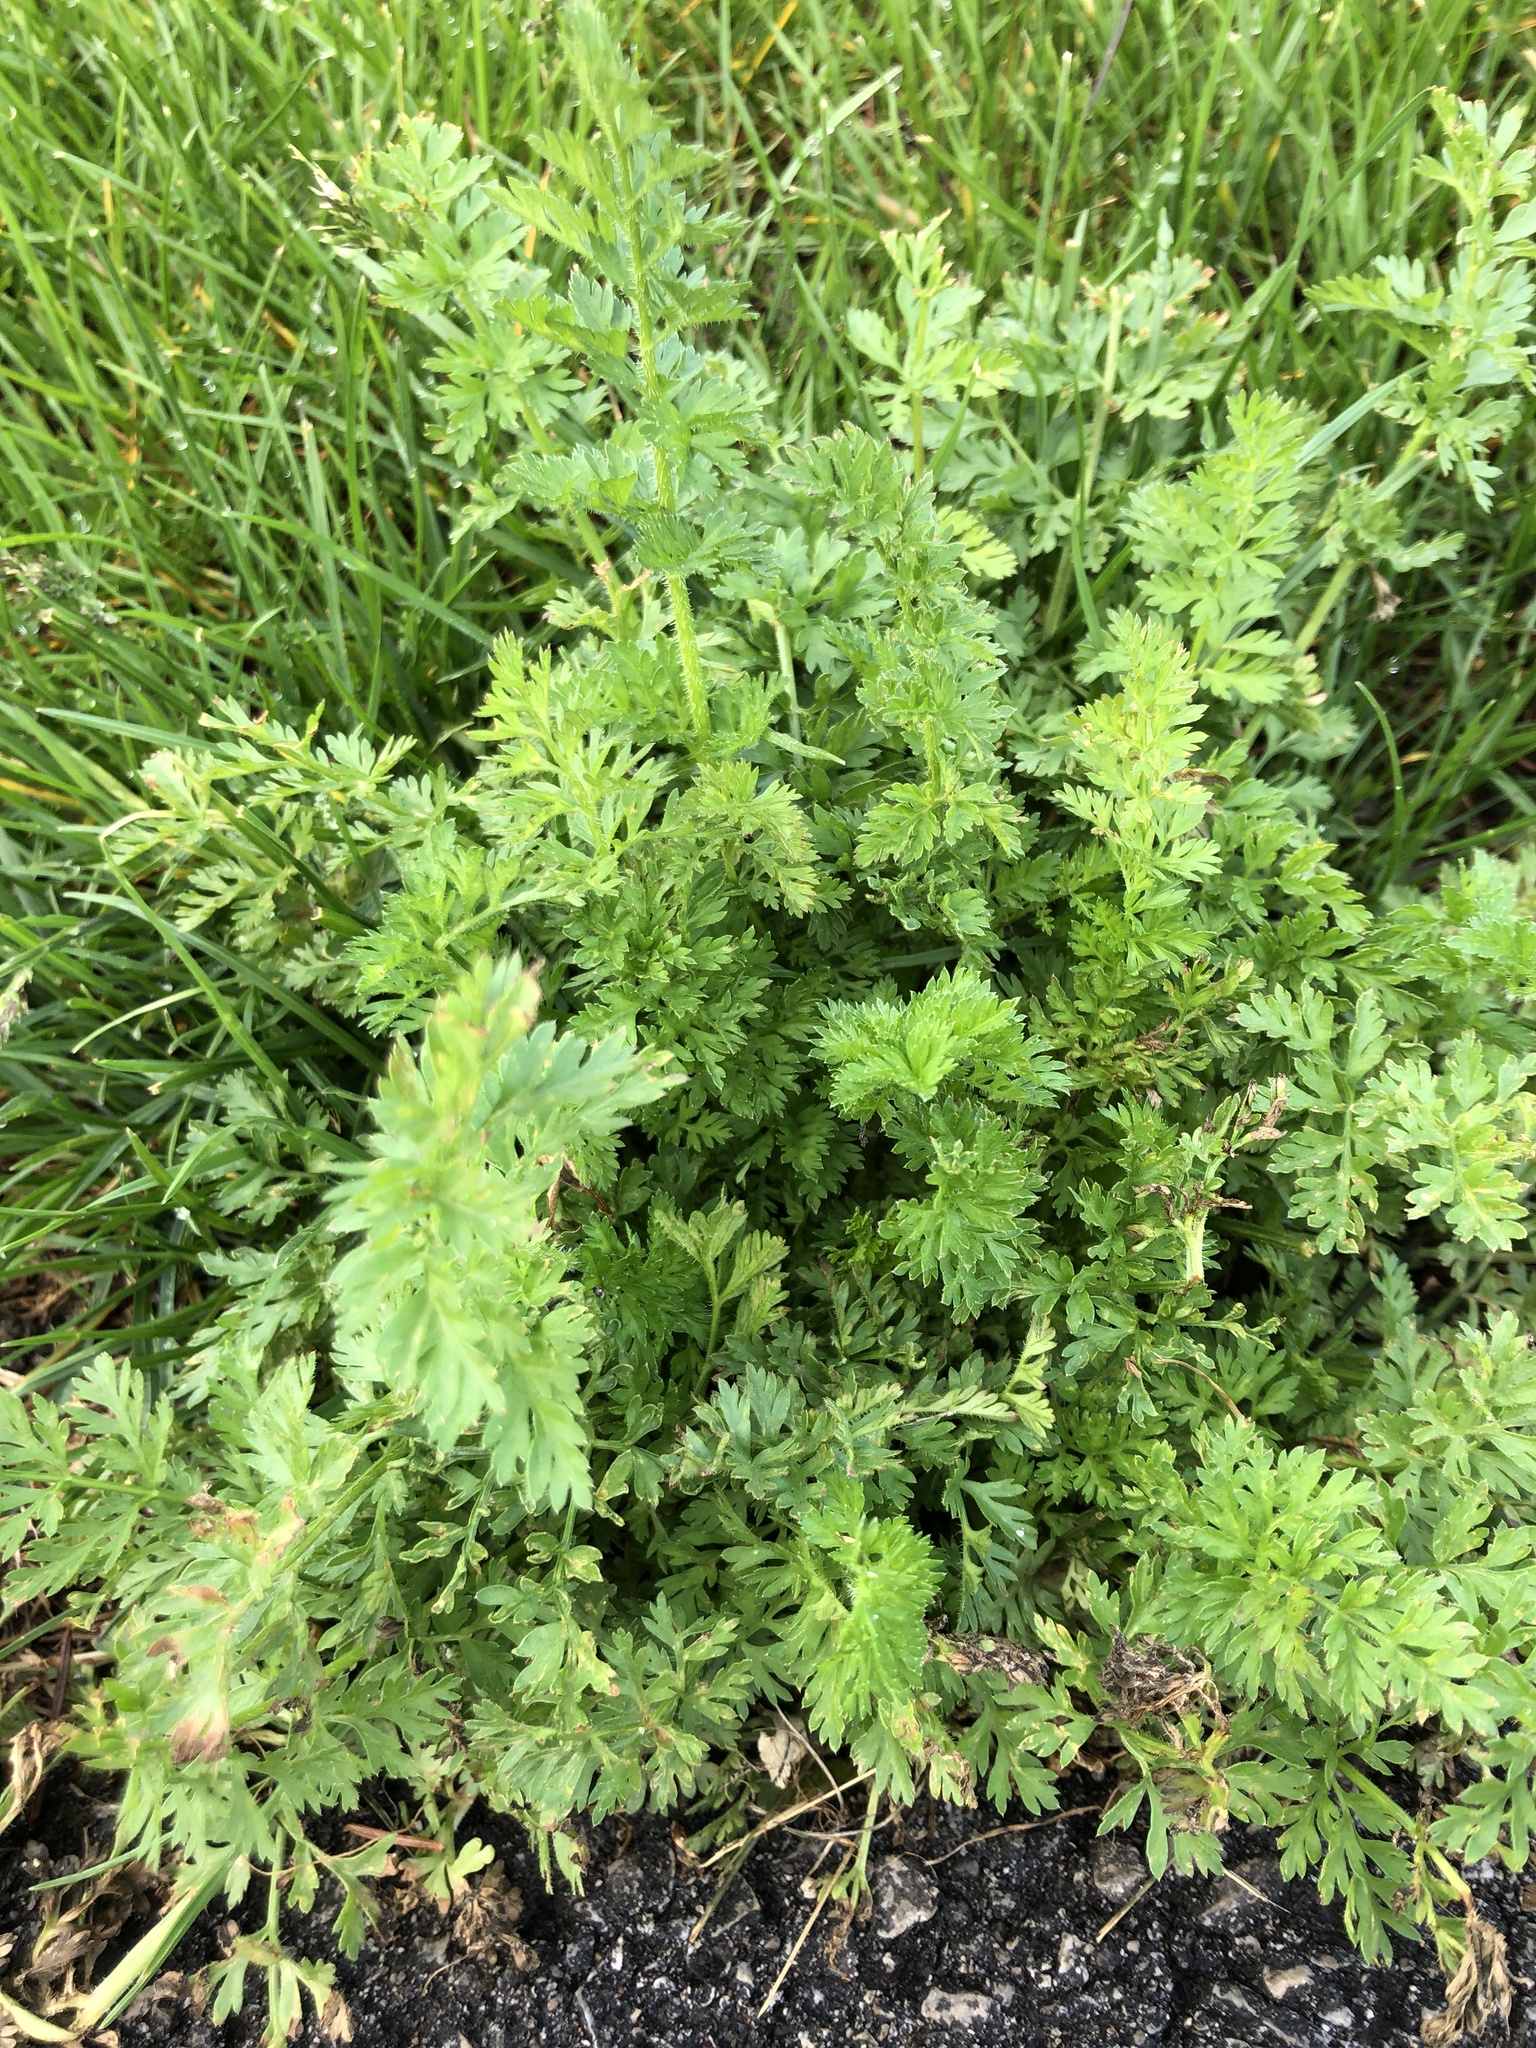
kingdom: Plantae
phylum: Tracheophyta
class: Magnoliopsida
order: Apiales
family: Apiaceae
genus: Daucus
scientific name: Daucus carota
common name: Wild carrot
